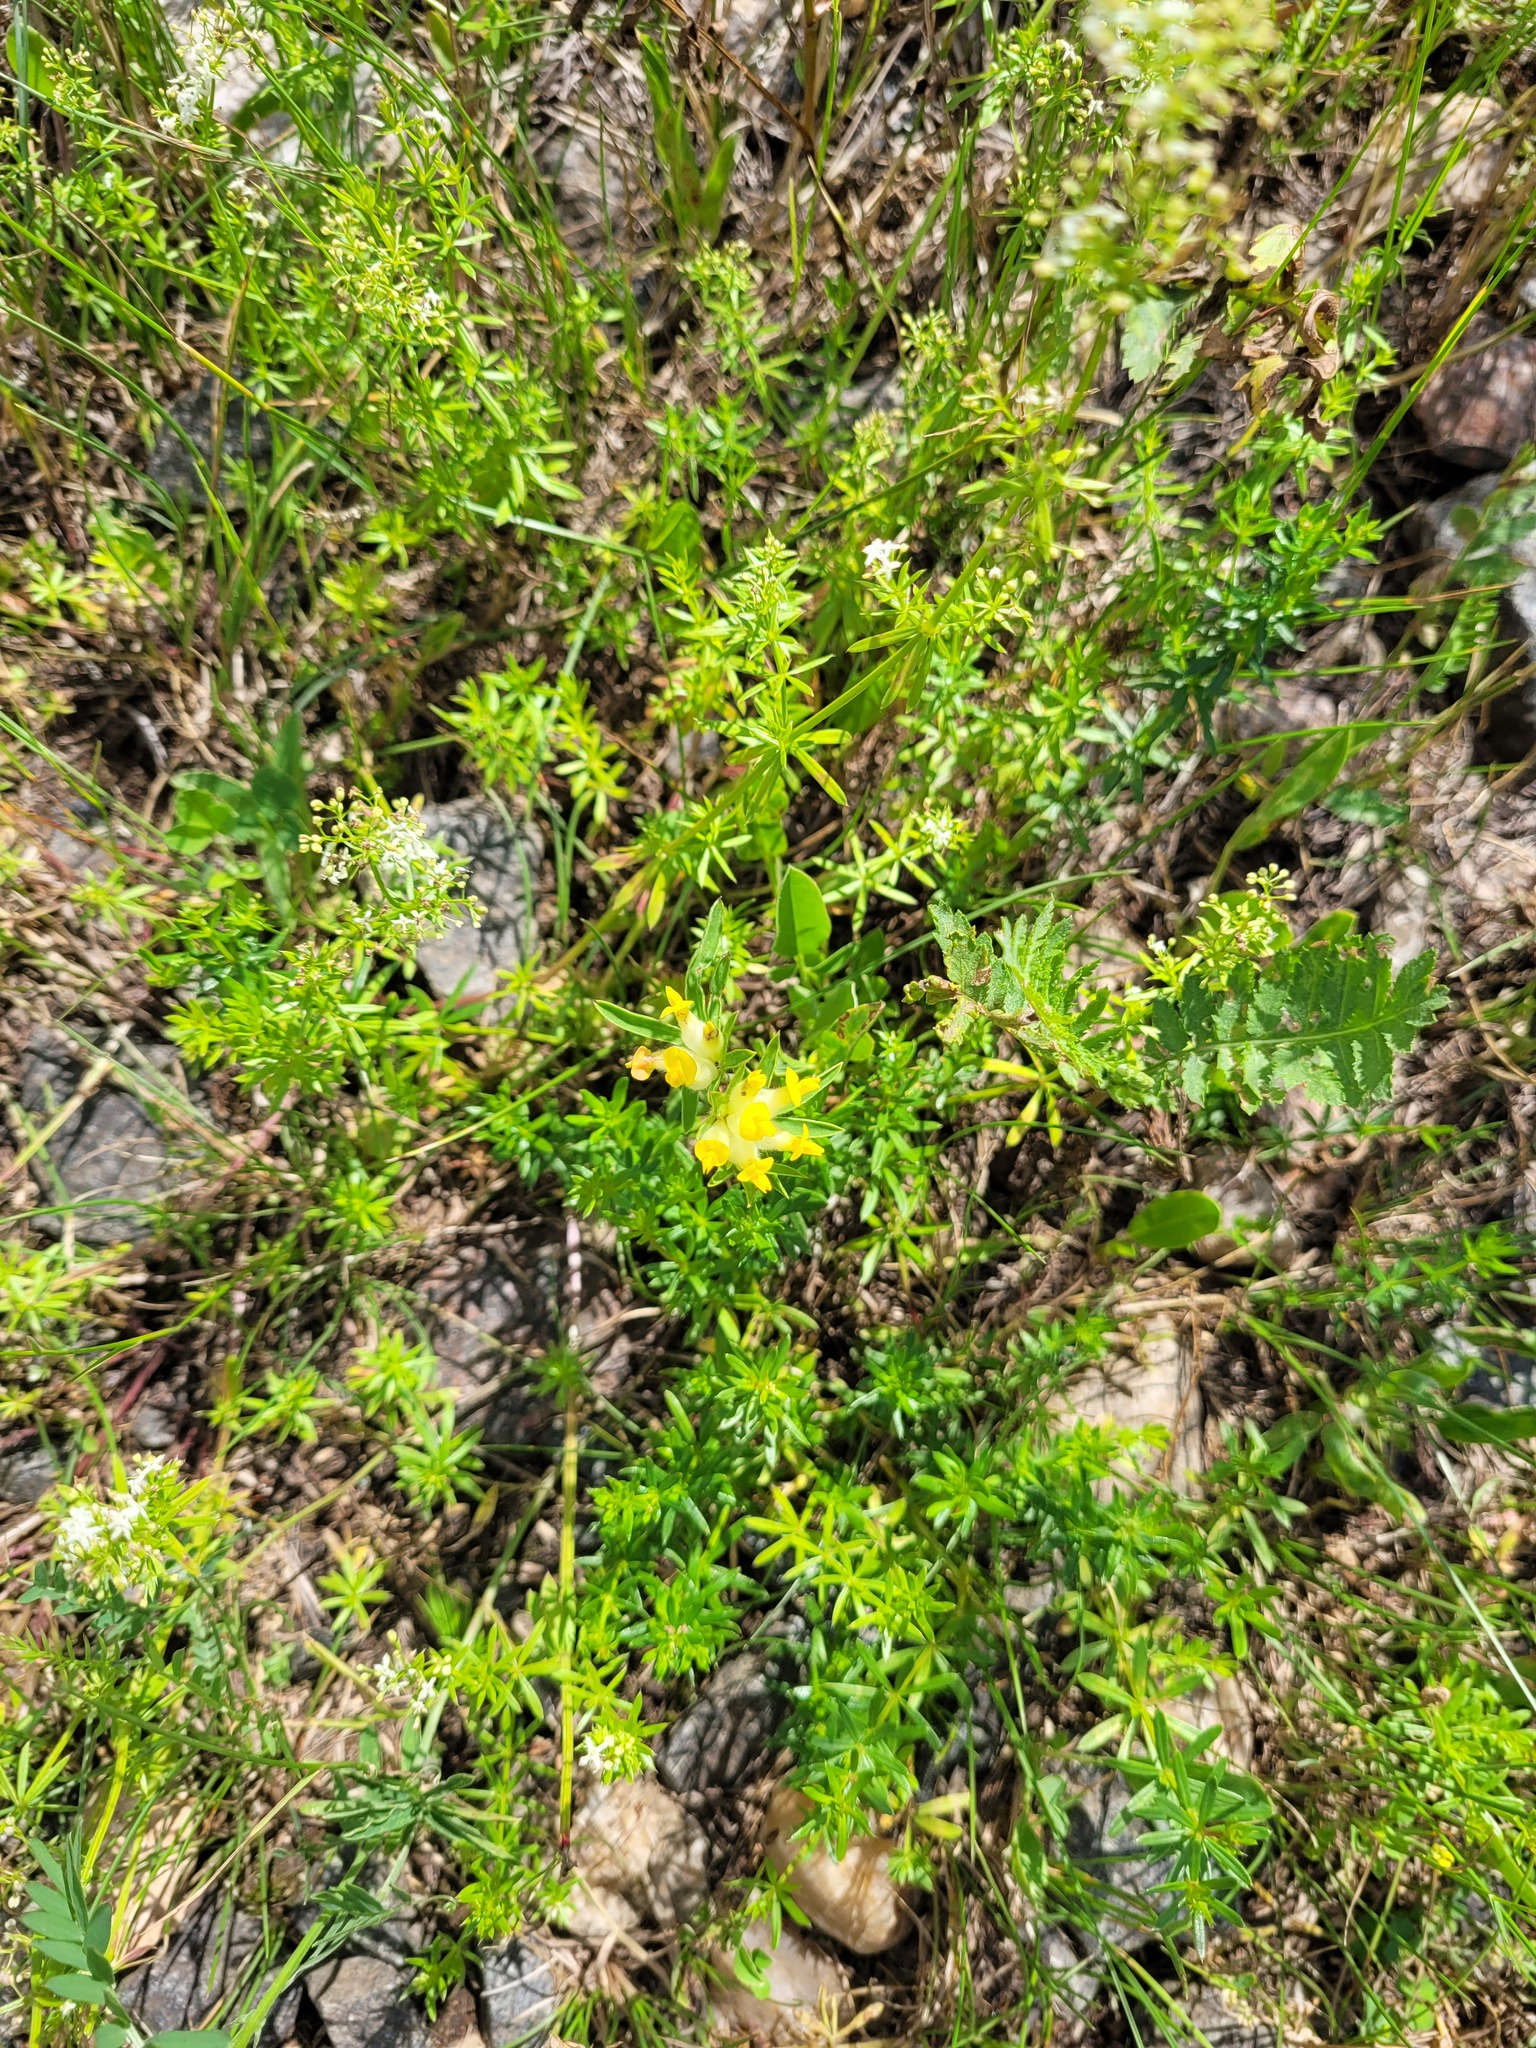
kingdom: Plantae
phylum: Tracheophyta
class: Magnoliopsida
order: Fabales
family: Fabaceae
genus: Anthyllis
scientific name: Anthyllis vulneraria
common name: Kidney vetch
